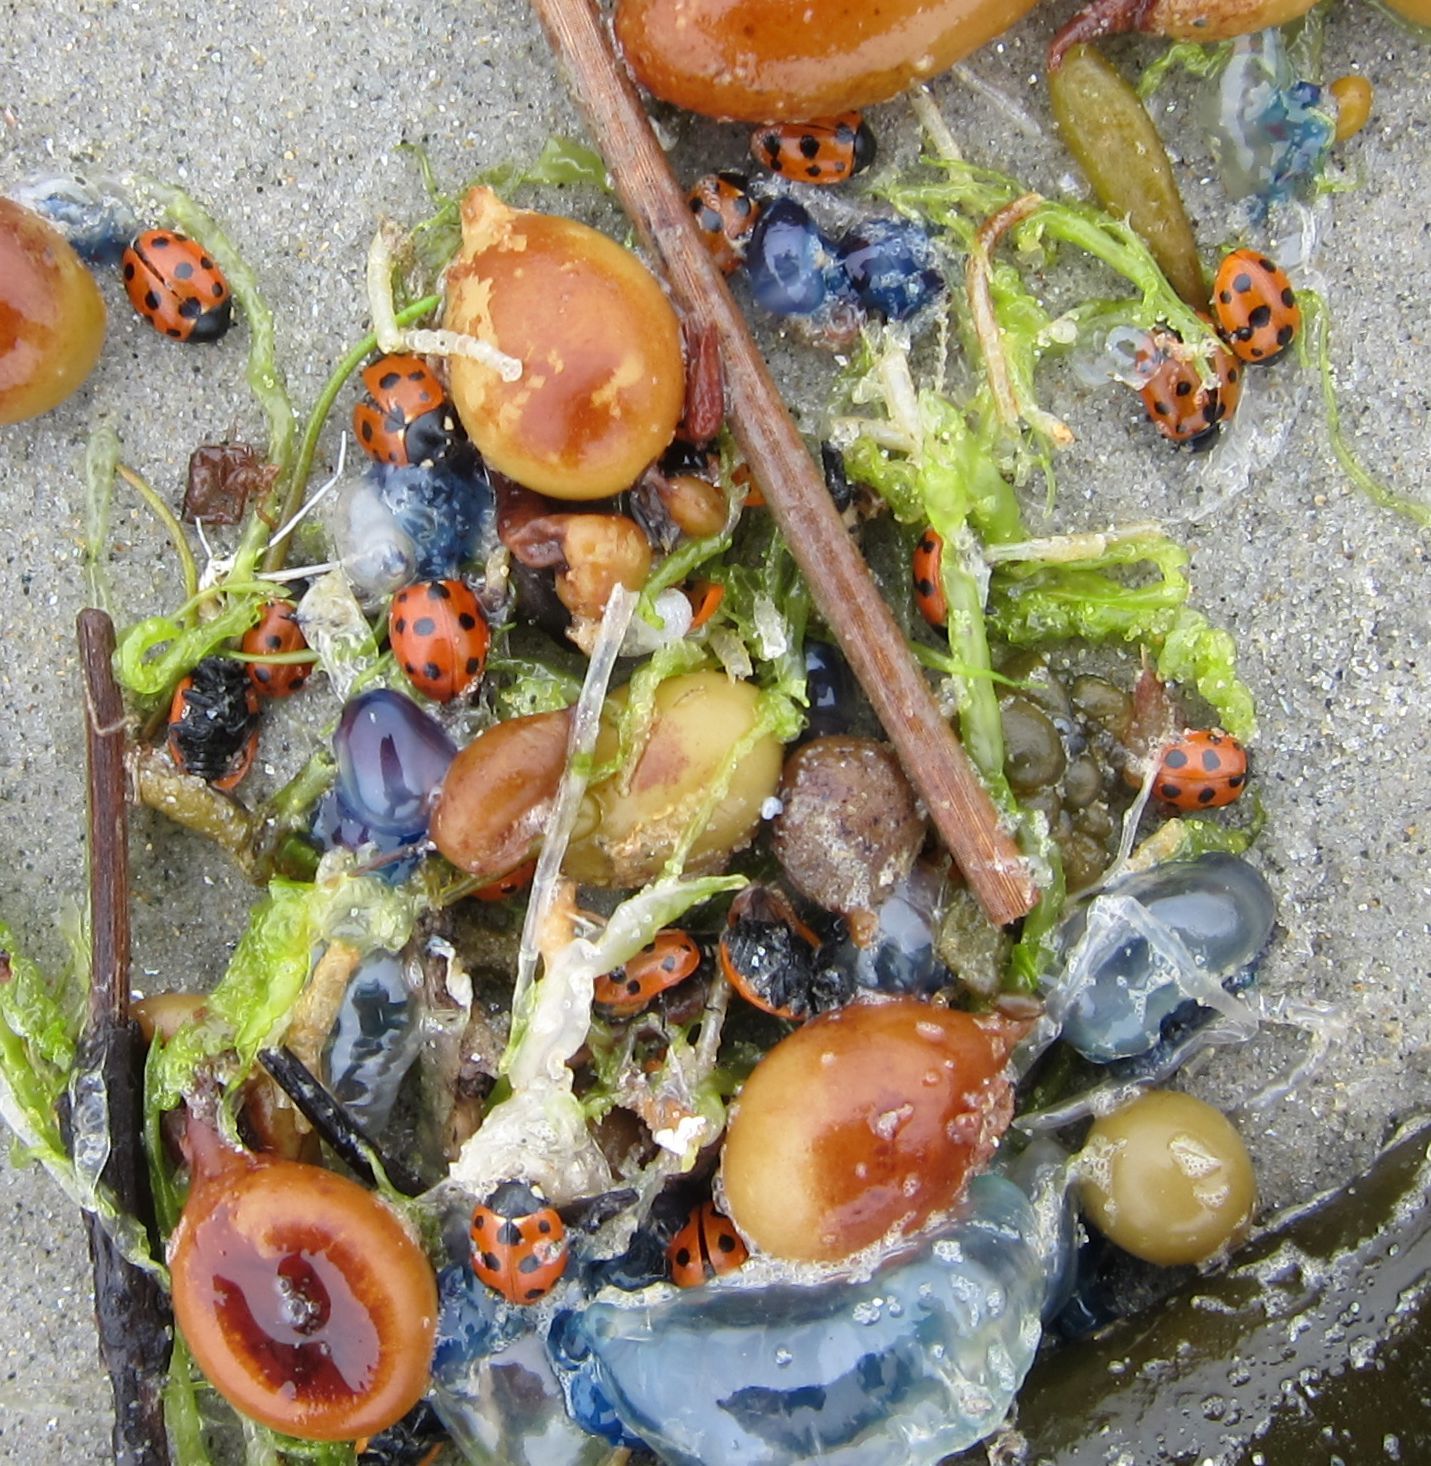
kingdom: Animalia
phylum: Arthropoda
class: Insecta
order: Coleoptera
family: Coccinellidae
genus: Coccinella
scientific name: Coccinella undecimpunctata
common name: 11-spot ladybird
